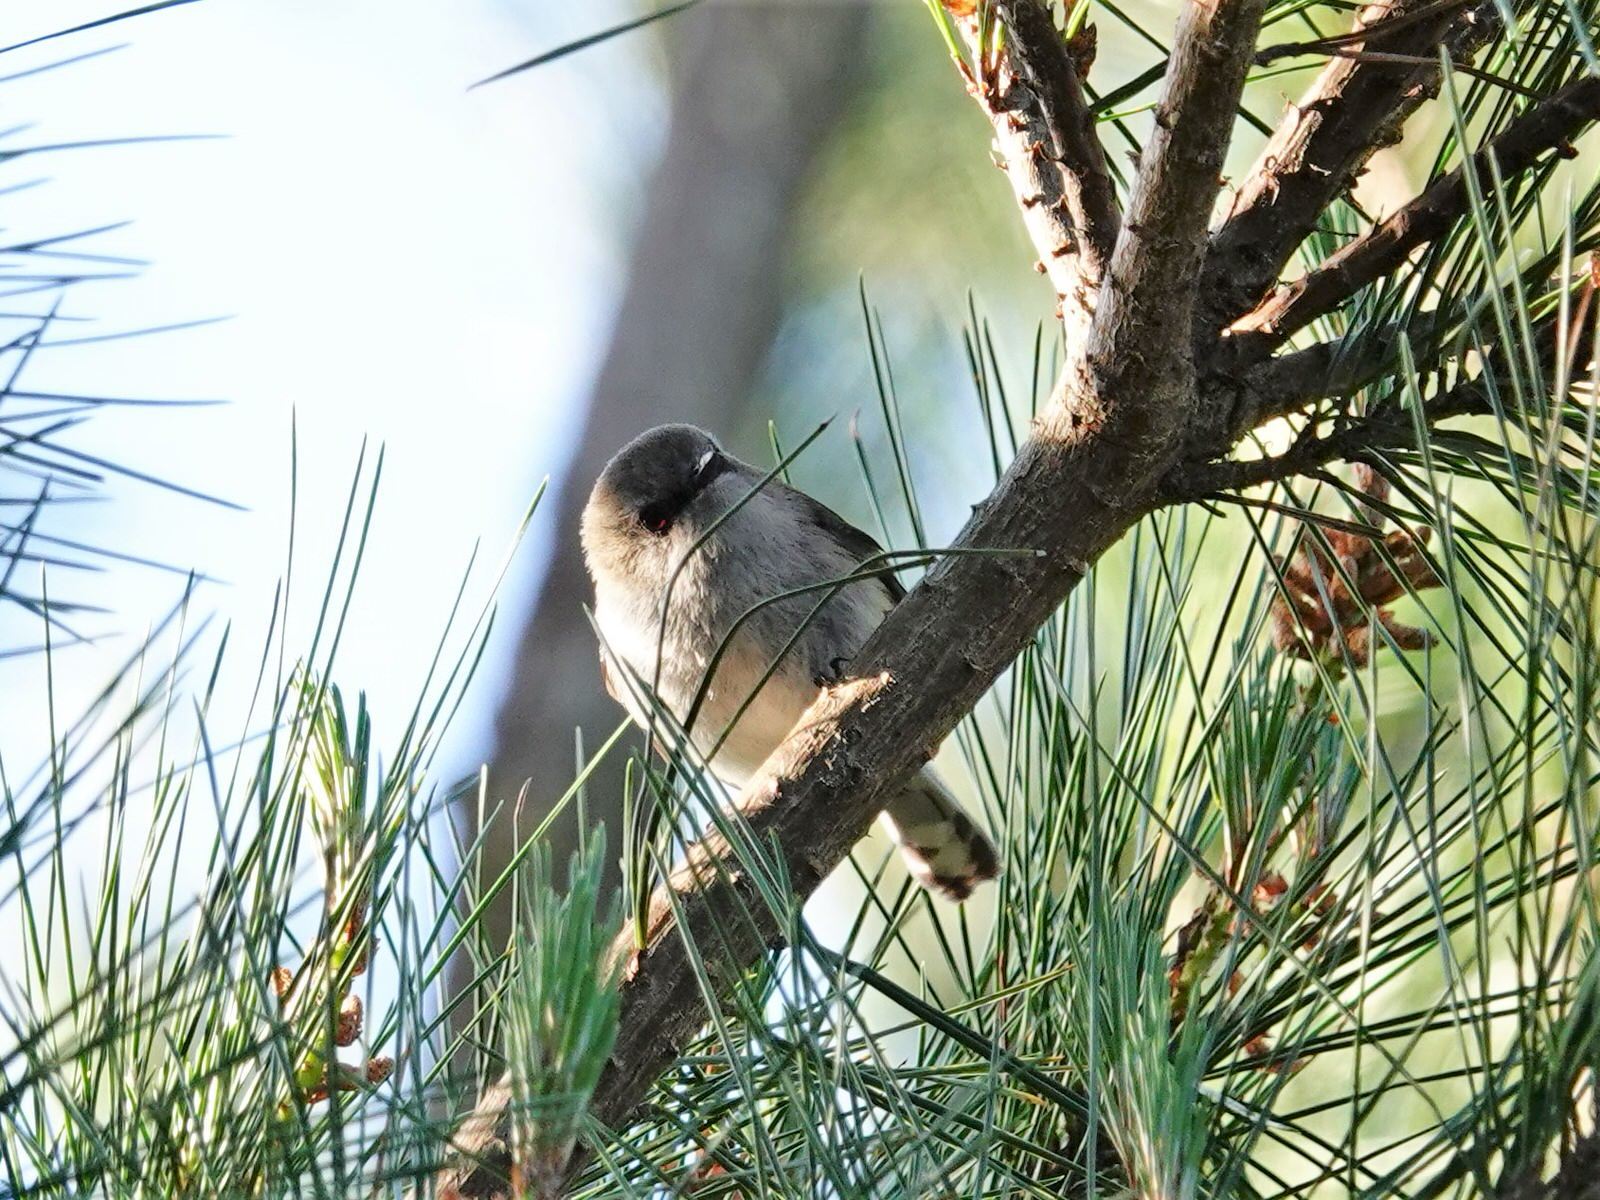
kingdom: Animalia
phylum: Chordata
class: Aves
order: Passeriformes
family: Acanthizidae
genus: Gerygone
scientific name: Gerygone igata
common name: Grey gerygone
